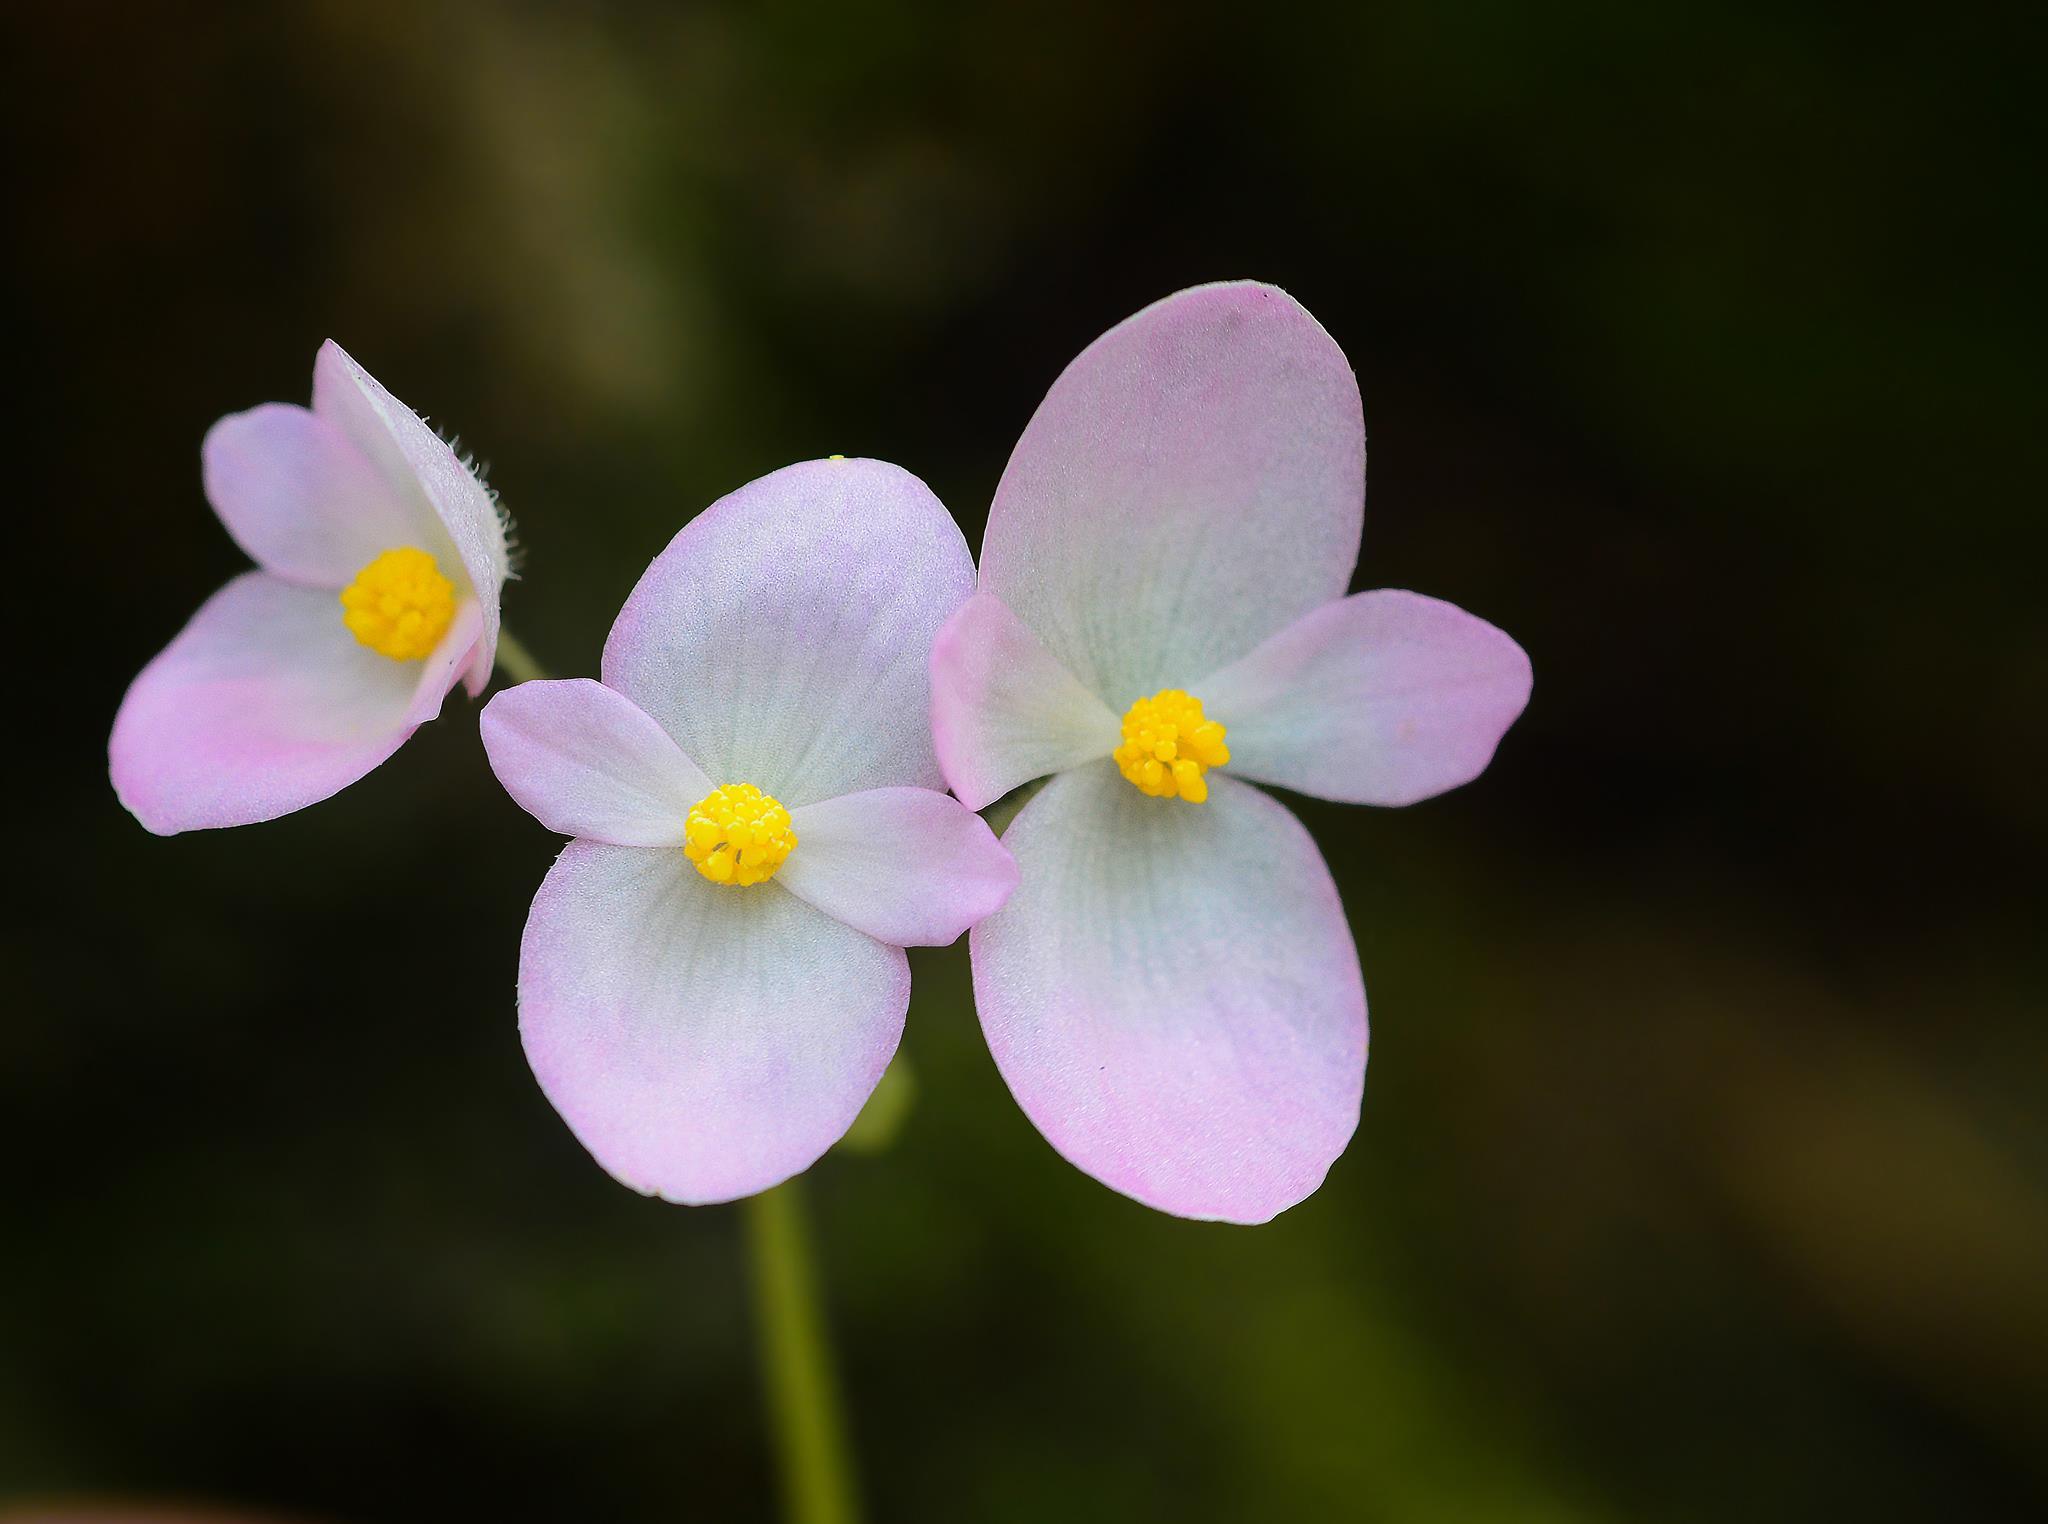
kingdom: Plantae
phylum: Tracheophyta
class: Magnoliopsida
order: Cucurbitales
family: Begoniaceae
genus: Begonia
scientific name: Begonia picta
